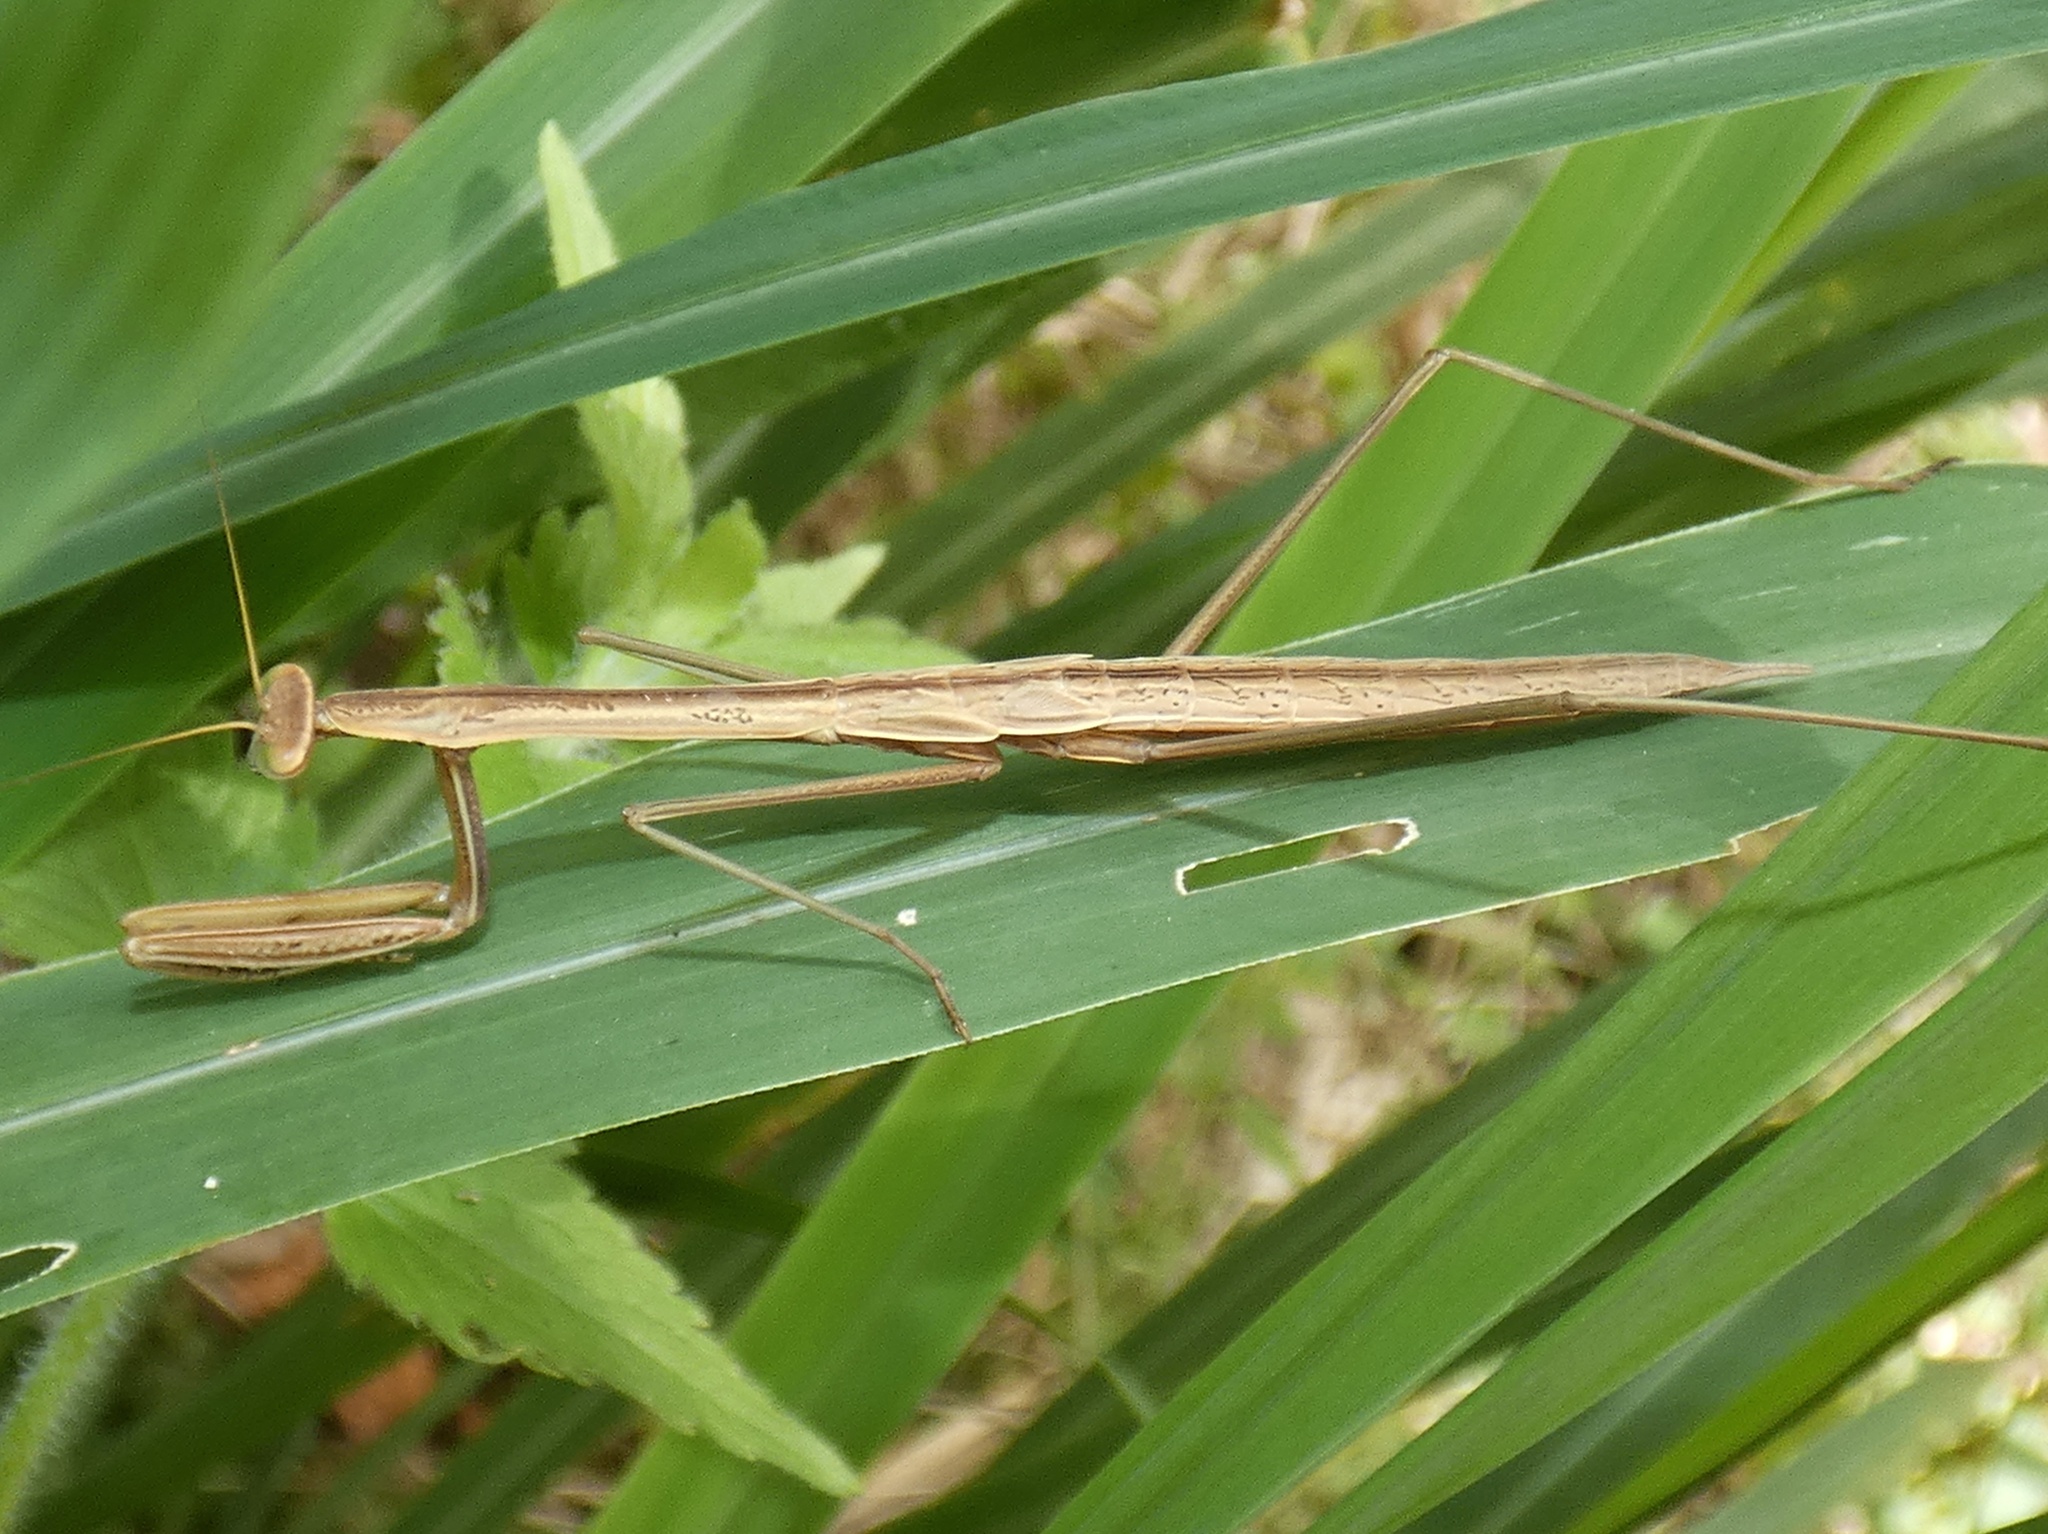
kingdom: Animalia
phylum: Arthropoda
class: Insecta
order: Mantodea
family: Mantidae
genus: Tenodera
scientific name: Tenodera australasiae
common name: Purple-winged mantis
